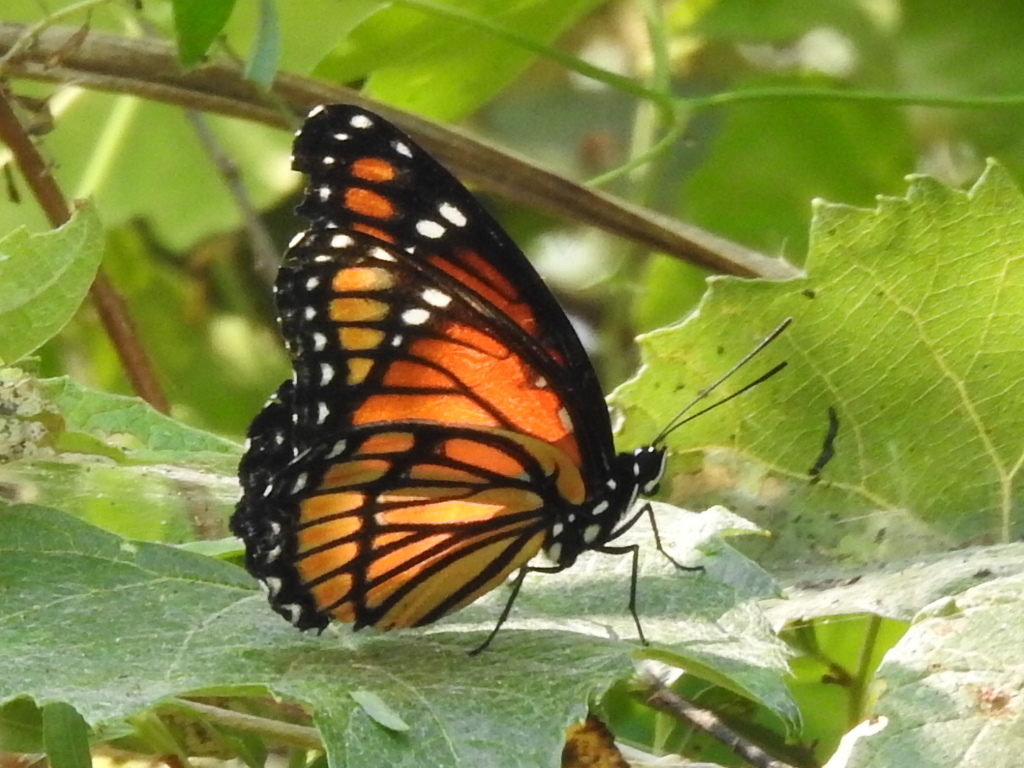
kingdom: Animalia
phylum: Arthropoda
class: Insecta
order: Lepidoptera
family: Nymphalidae
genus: Limenitis
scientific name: Limenitis archippus
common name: Viceroy
